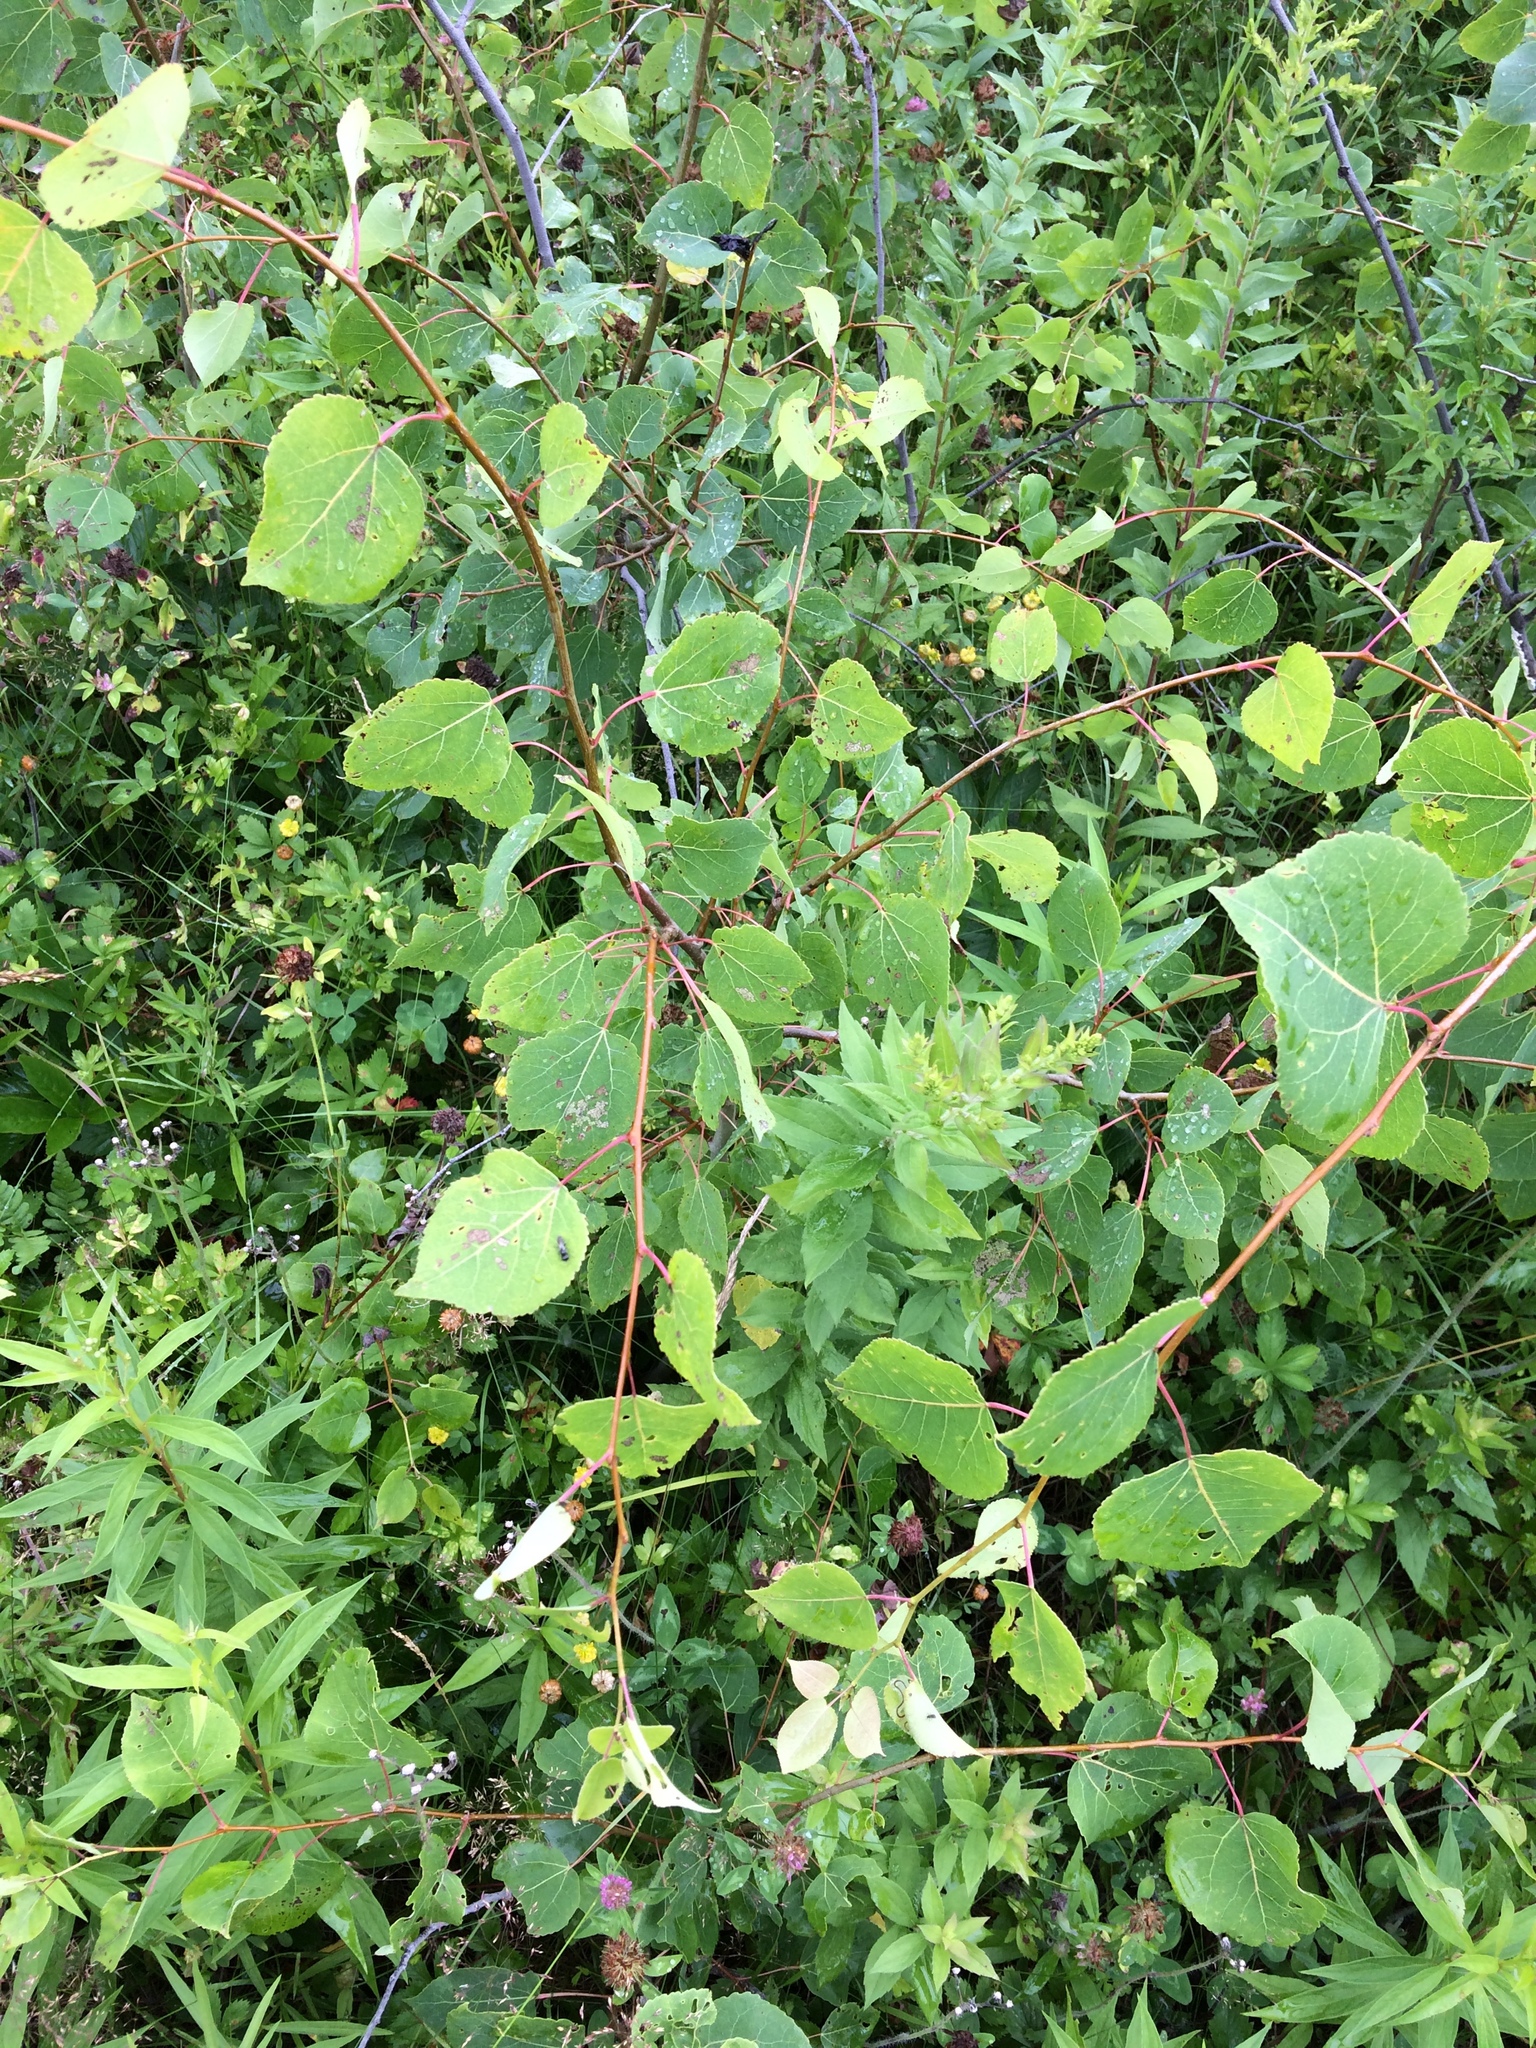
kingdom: Plantae
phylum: Tracheophyta
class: Magnoliopsida
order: Malpighiales
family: Salicaceae
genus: Populus
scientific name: Populus tremuloides
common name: Quaking aspen
